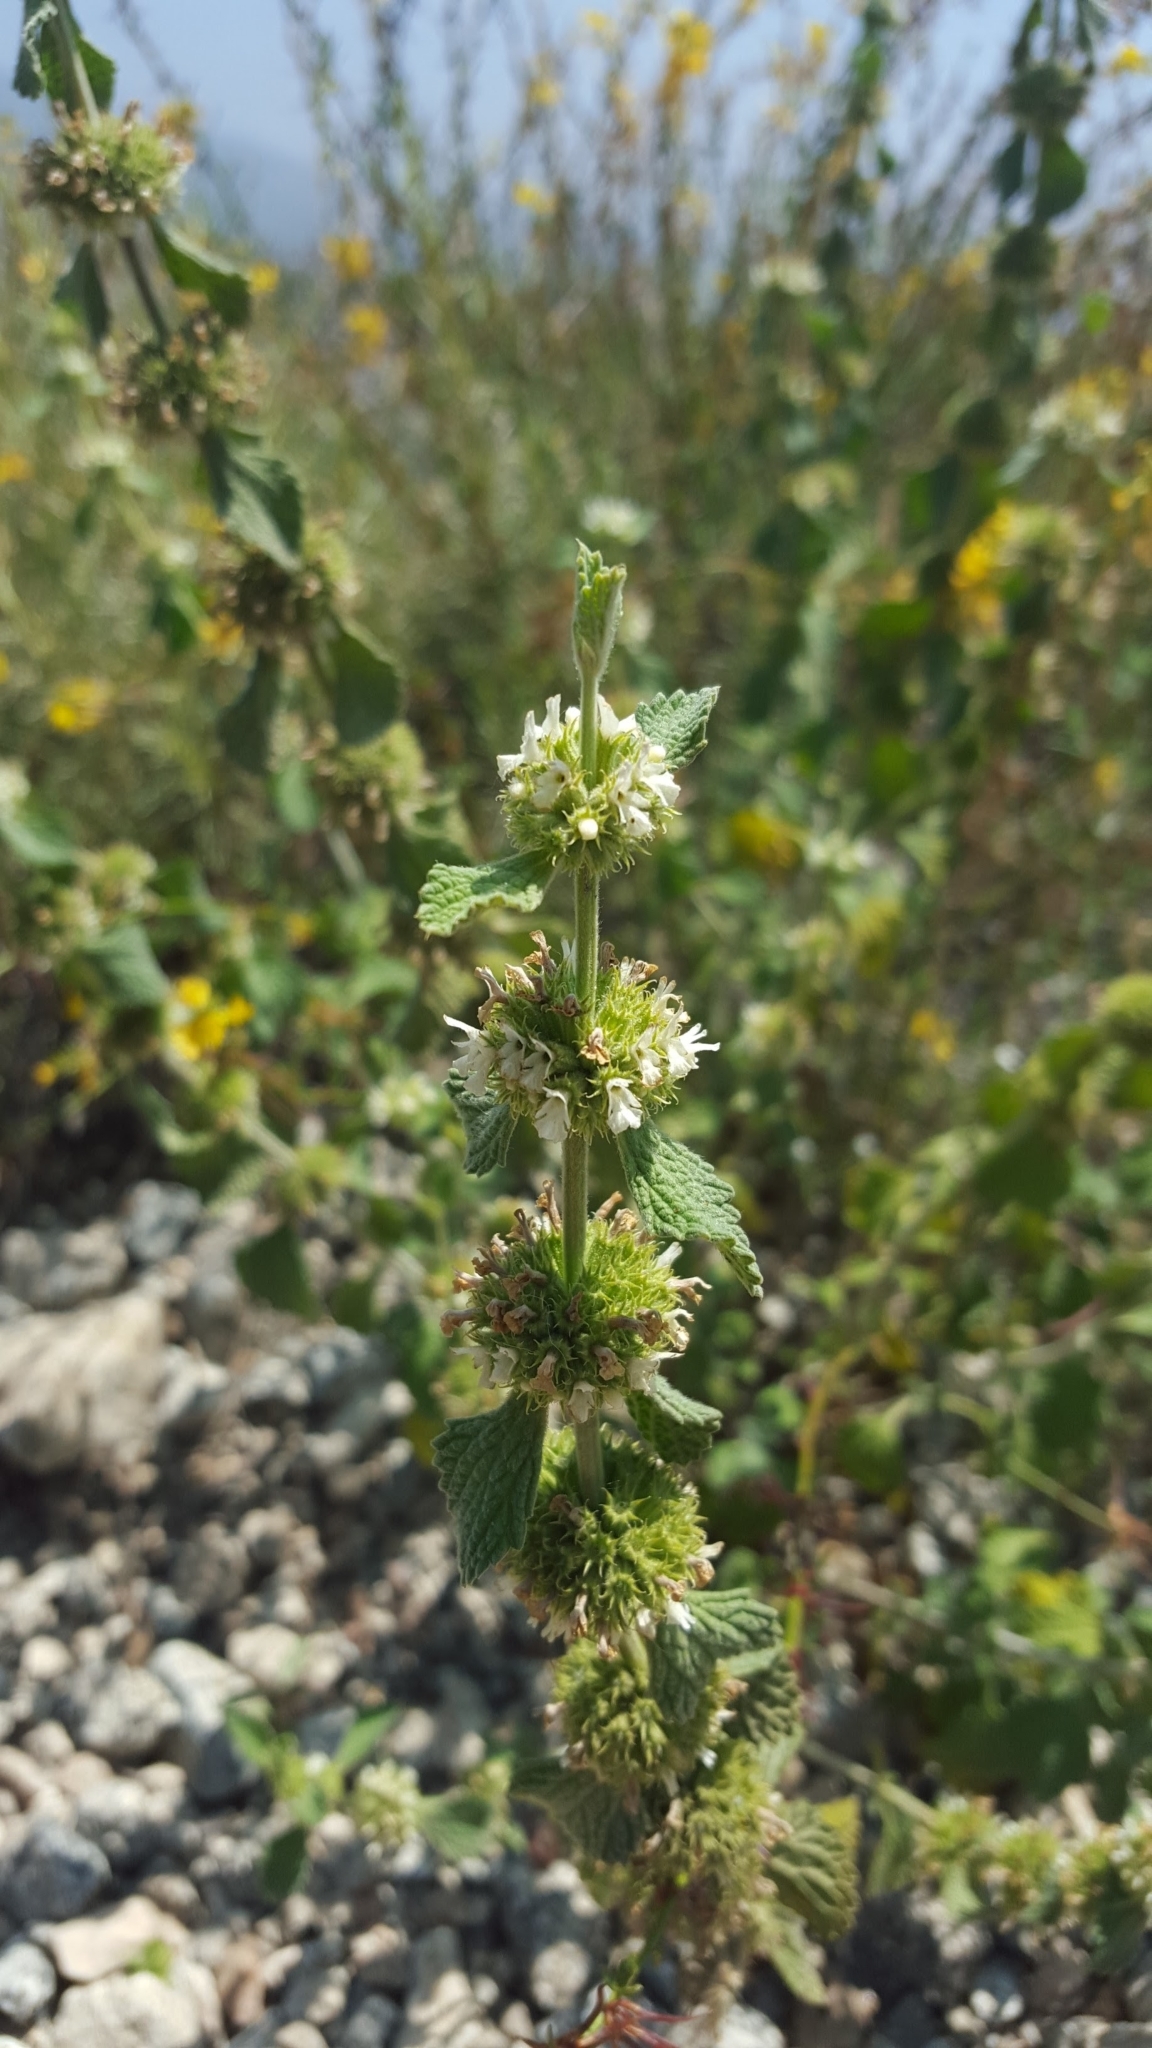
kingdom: Plantae
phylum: Tracheophyta
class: Magnoliopsida
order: Lamiales
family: Lamiaceae
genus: Marrubium
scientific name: Marrubium vulgare
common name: Horehound
